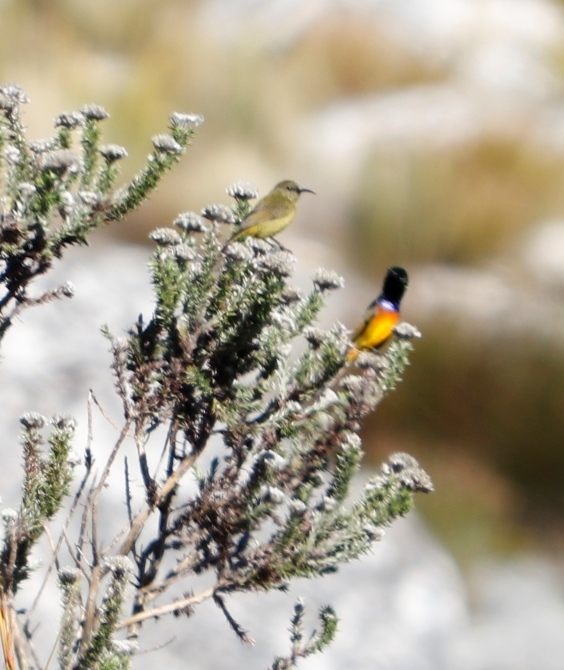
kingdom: Animalia
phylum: Chordata
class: Aves
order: Passeriformes
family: Nectariniidae
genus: Anthobaphes
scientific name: Anthobaphes violacea
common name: Orange-breasted sunbird
